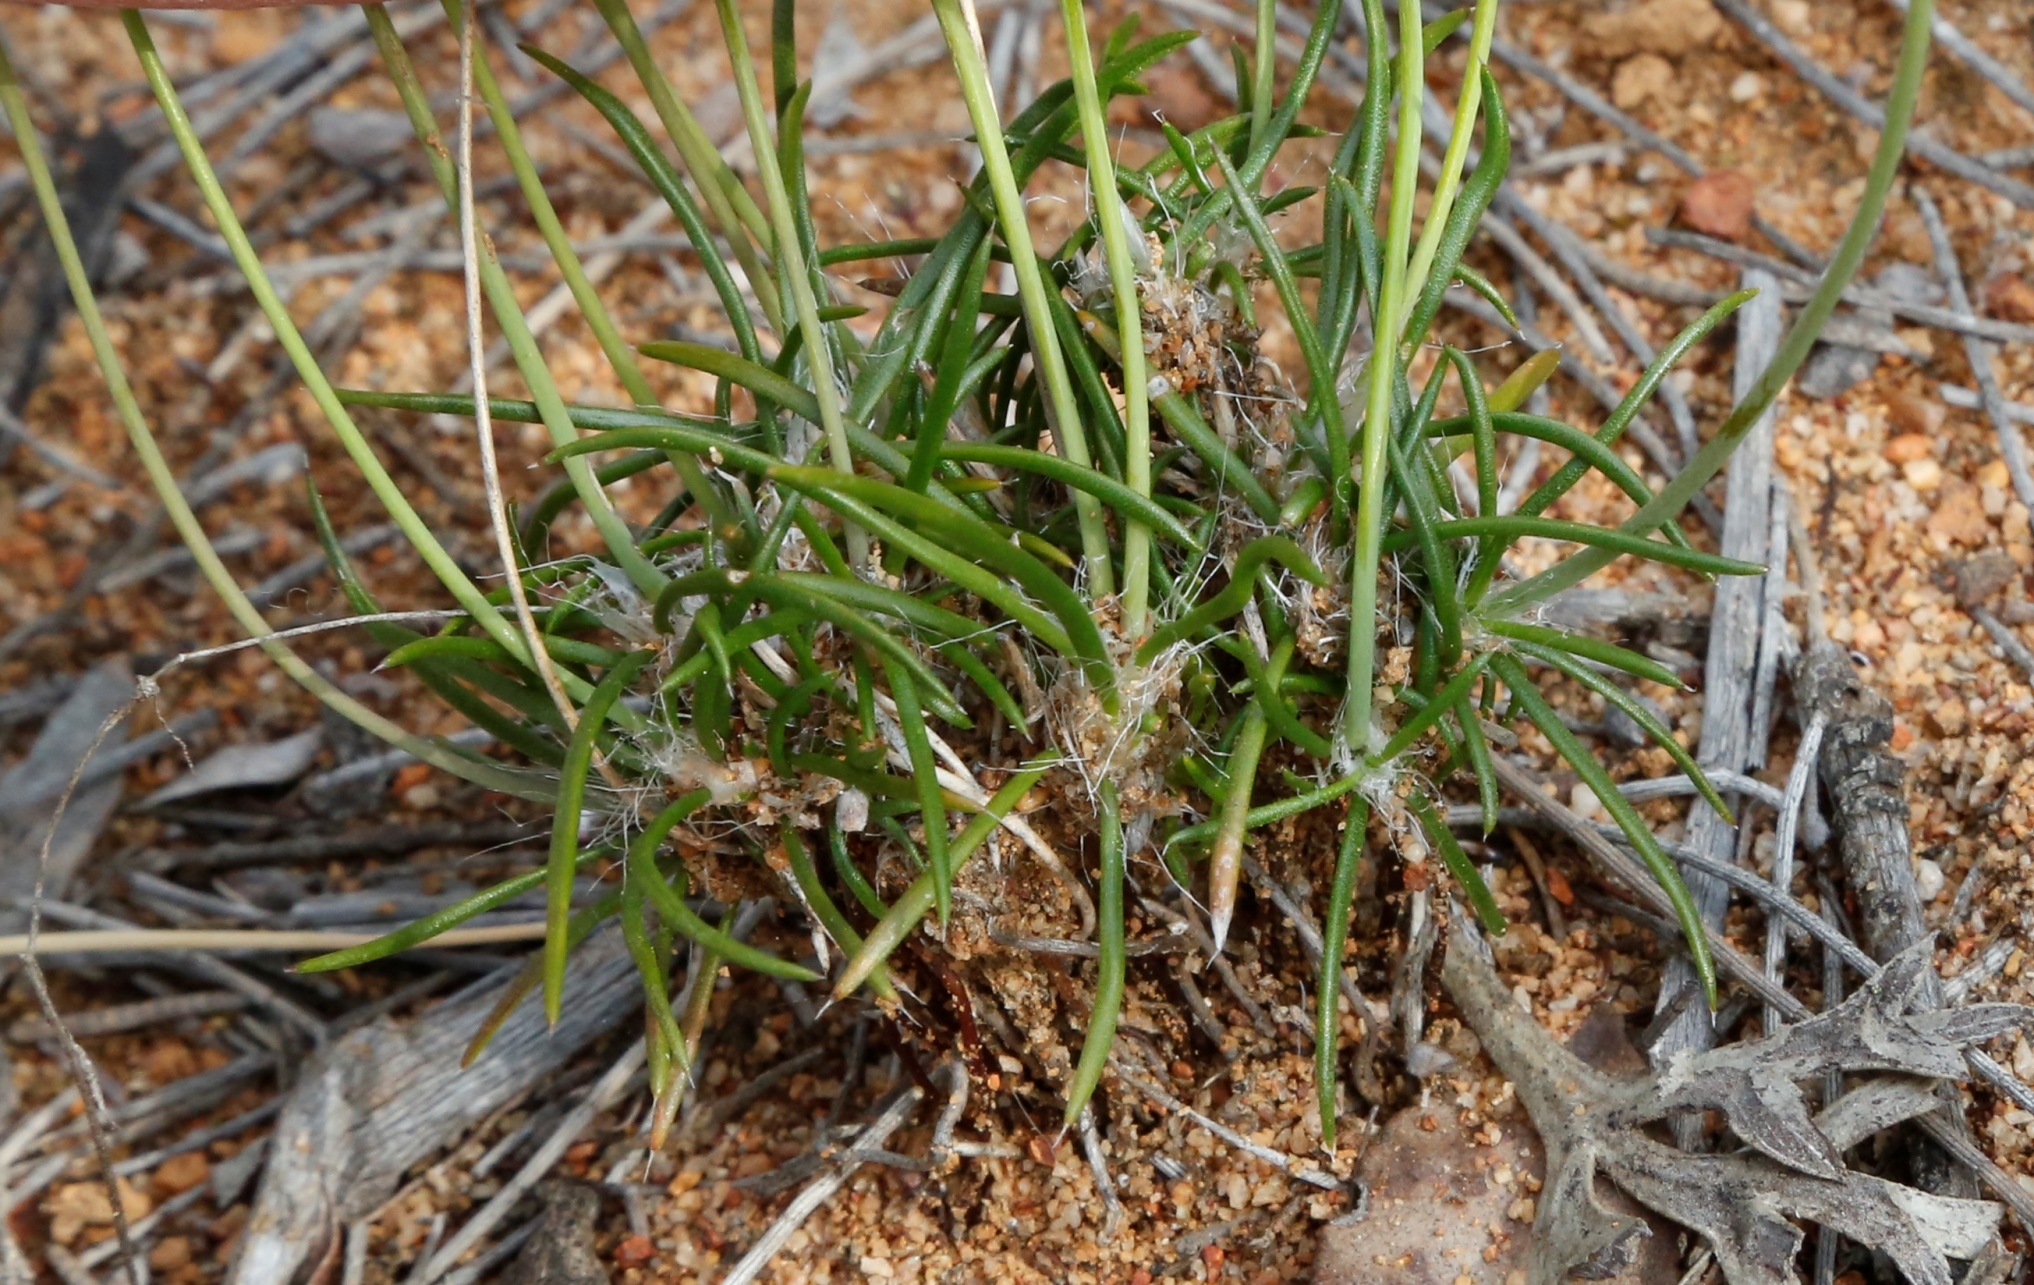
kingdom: Plantae
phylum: Tracheophyta
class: Liliopsida
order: Asparagales
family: Asparagaceae
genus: Laxmannia
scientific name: Laxmannia grandiflora
